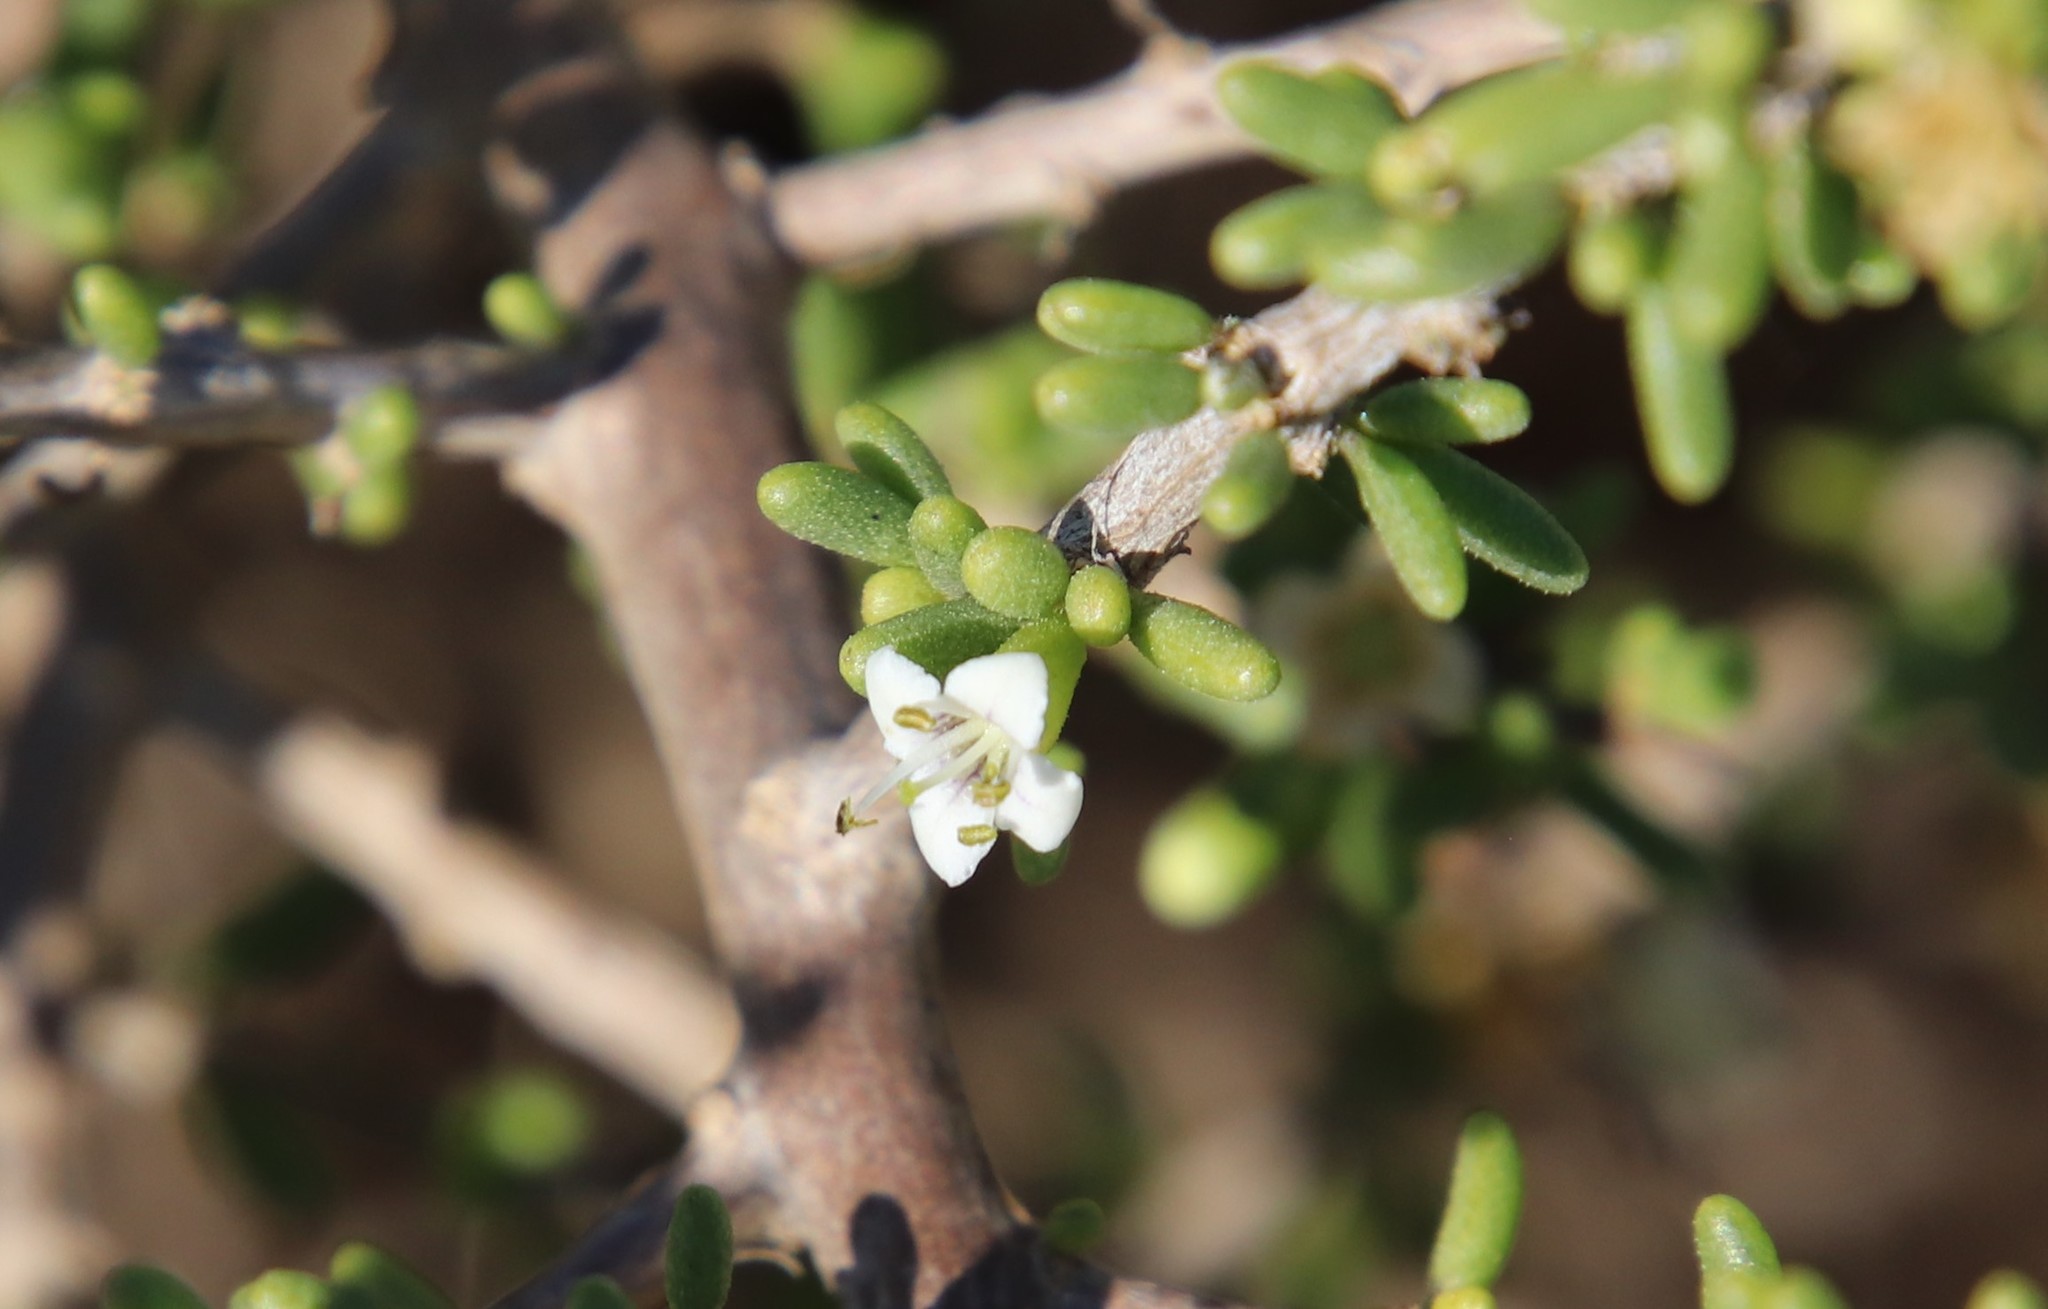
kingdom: Plantae
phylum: Tracheophyta
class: Magnoliopsida
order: Solanales
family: Solanaceae
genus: Lycium
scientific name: Lycium californicum
